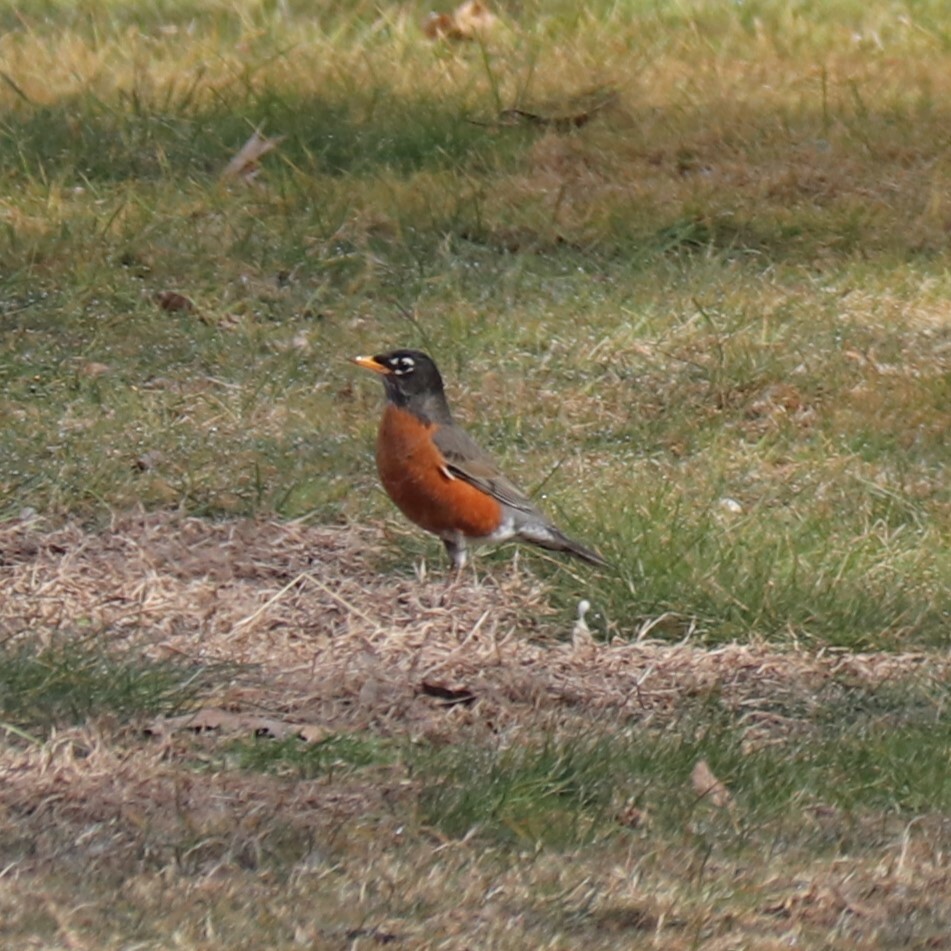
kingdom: Animalia
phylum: Chordata
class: Aves
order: Passeriformes
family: Turdidae
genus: Turdus
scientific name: Turdus migratorius
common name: American robin
